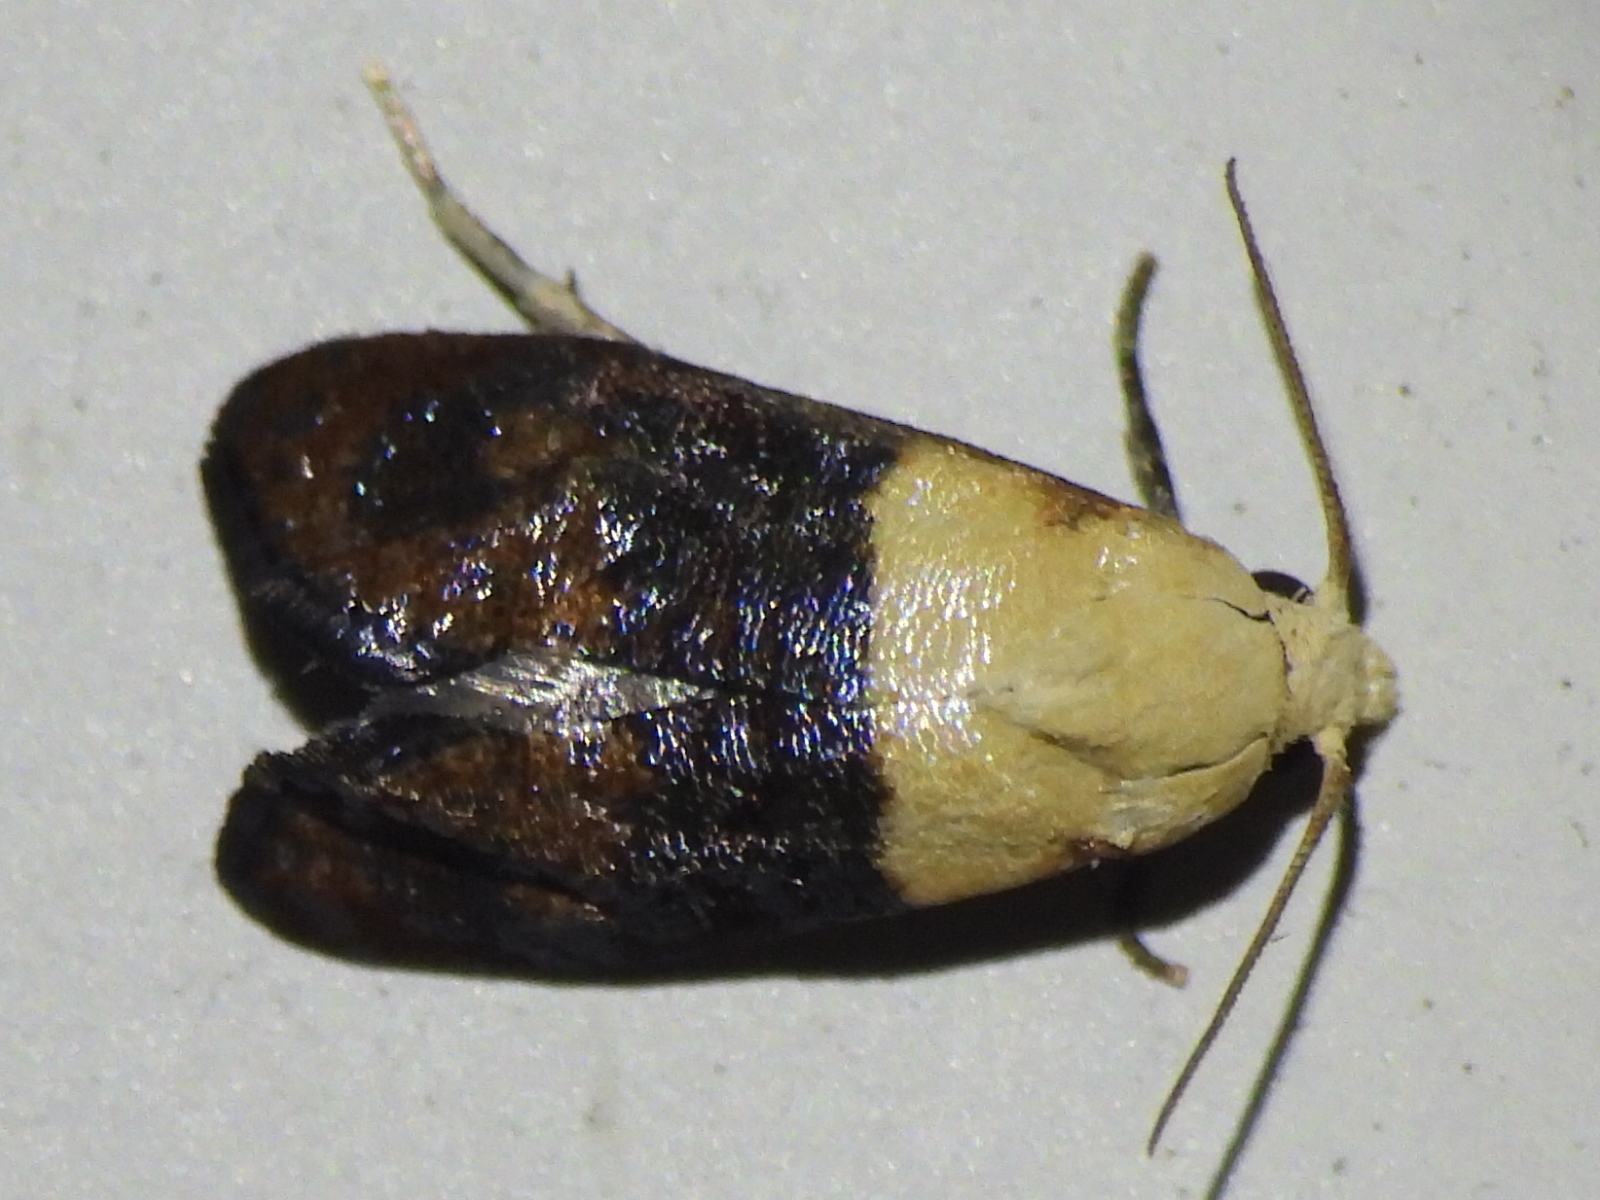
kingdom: Animalia
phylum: Arthropoda
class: Insecta
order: Lepidoptera
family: Tortricidae
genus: Eugnosta
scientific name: Eugnosta erigeronana
